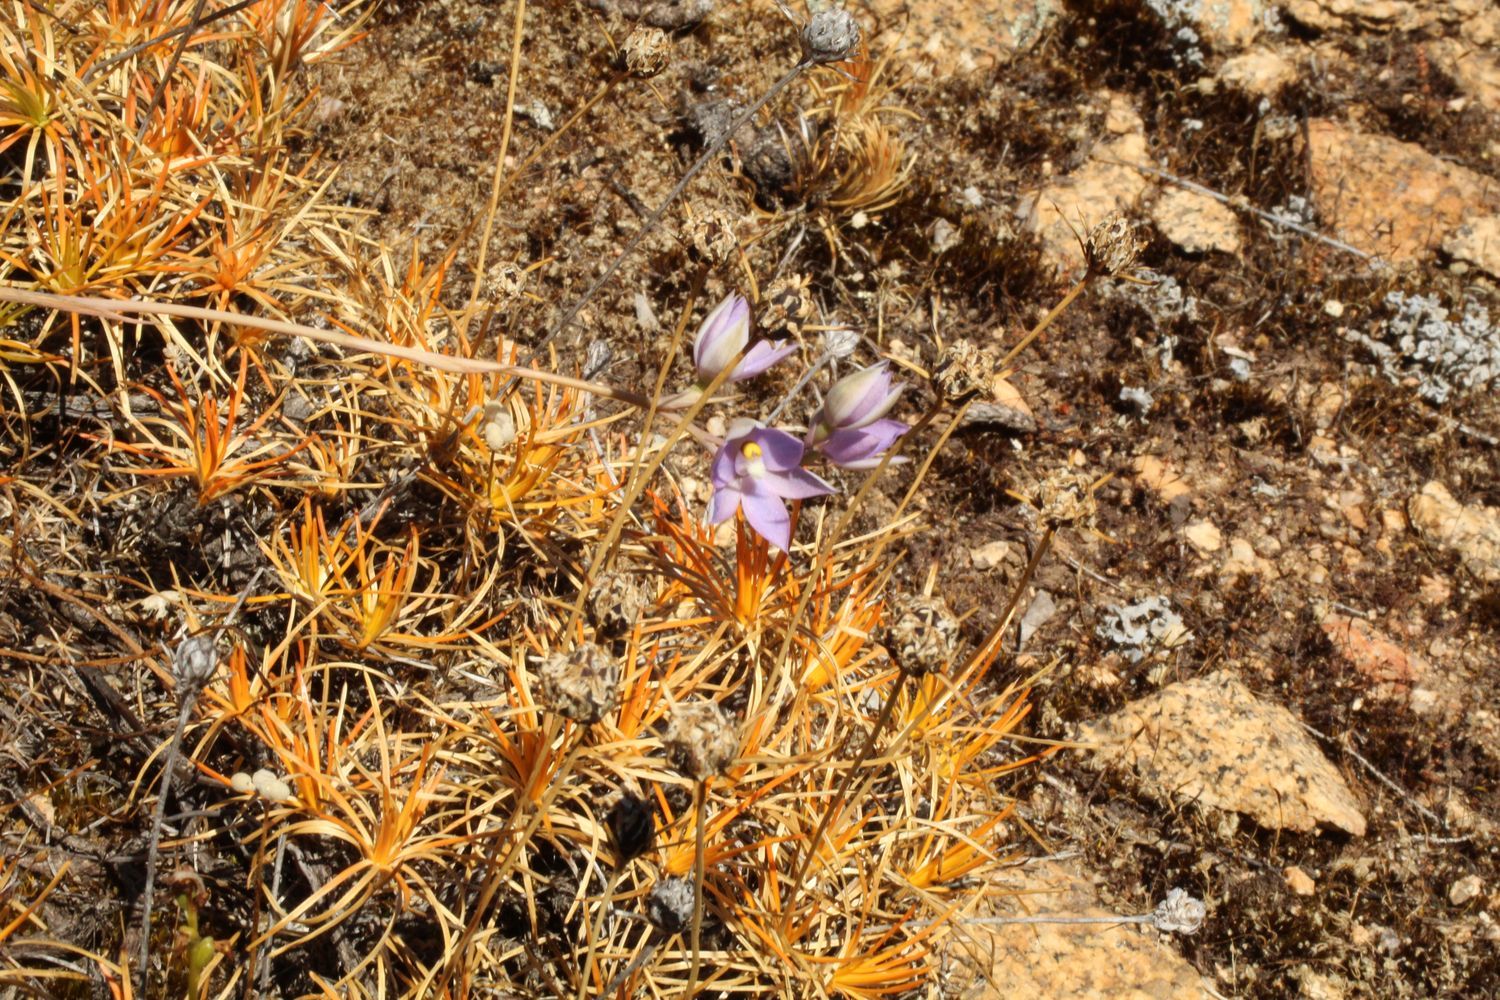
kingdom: Plantae
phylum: Tracheophyta
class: Liliopsida
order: Asparagales
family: Orchidaceae
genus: Thelymitra
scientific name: Thelymitra petrophila
